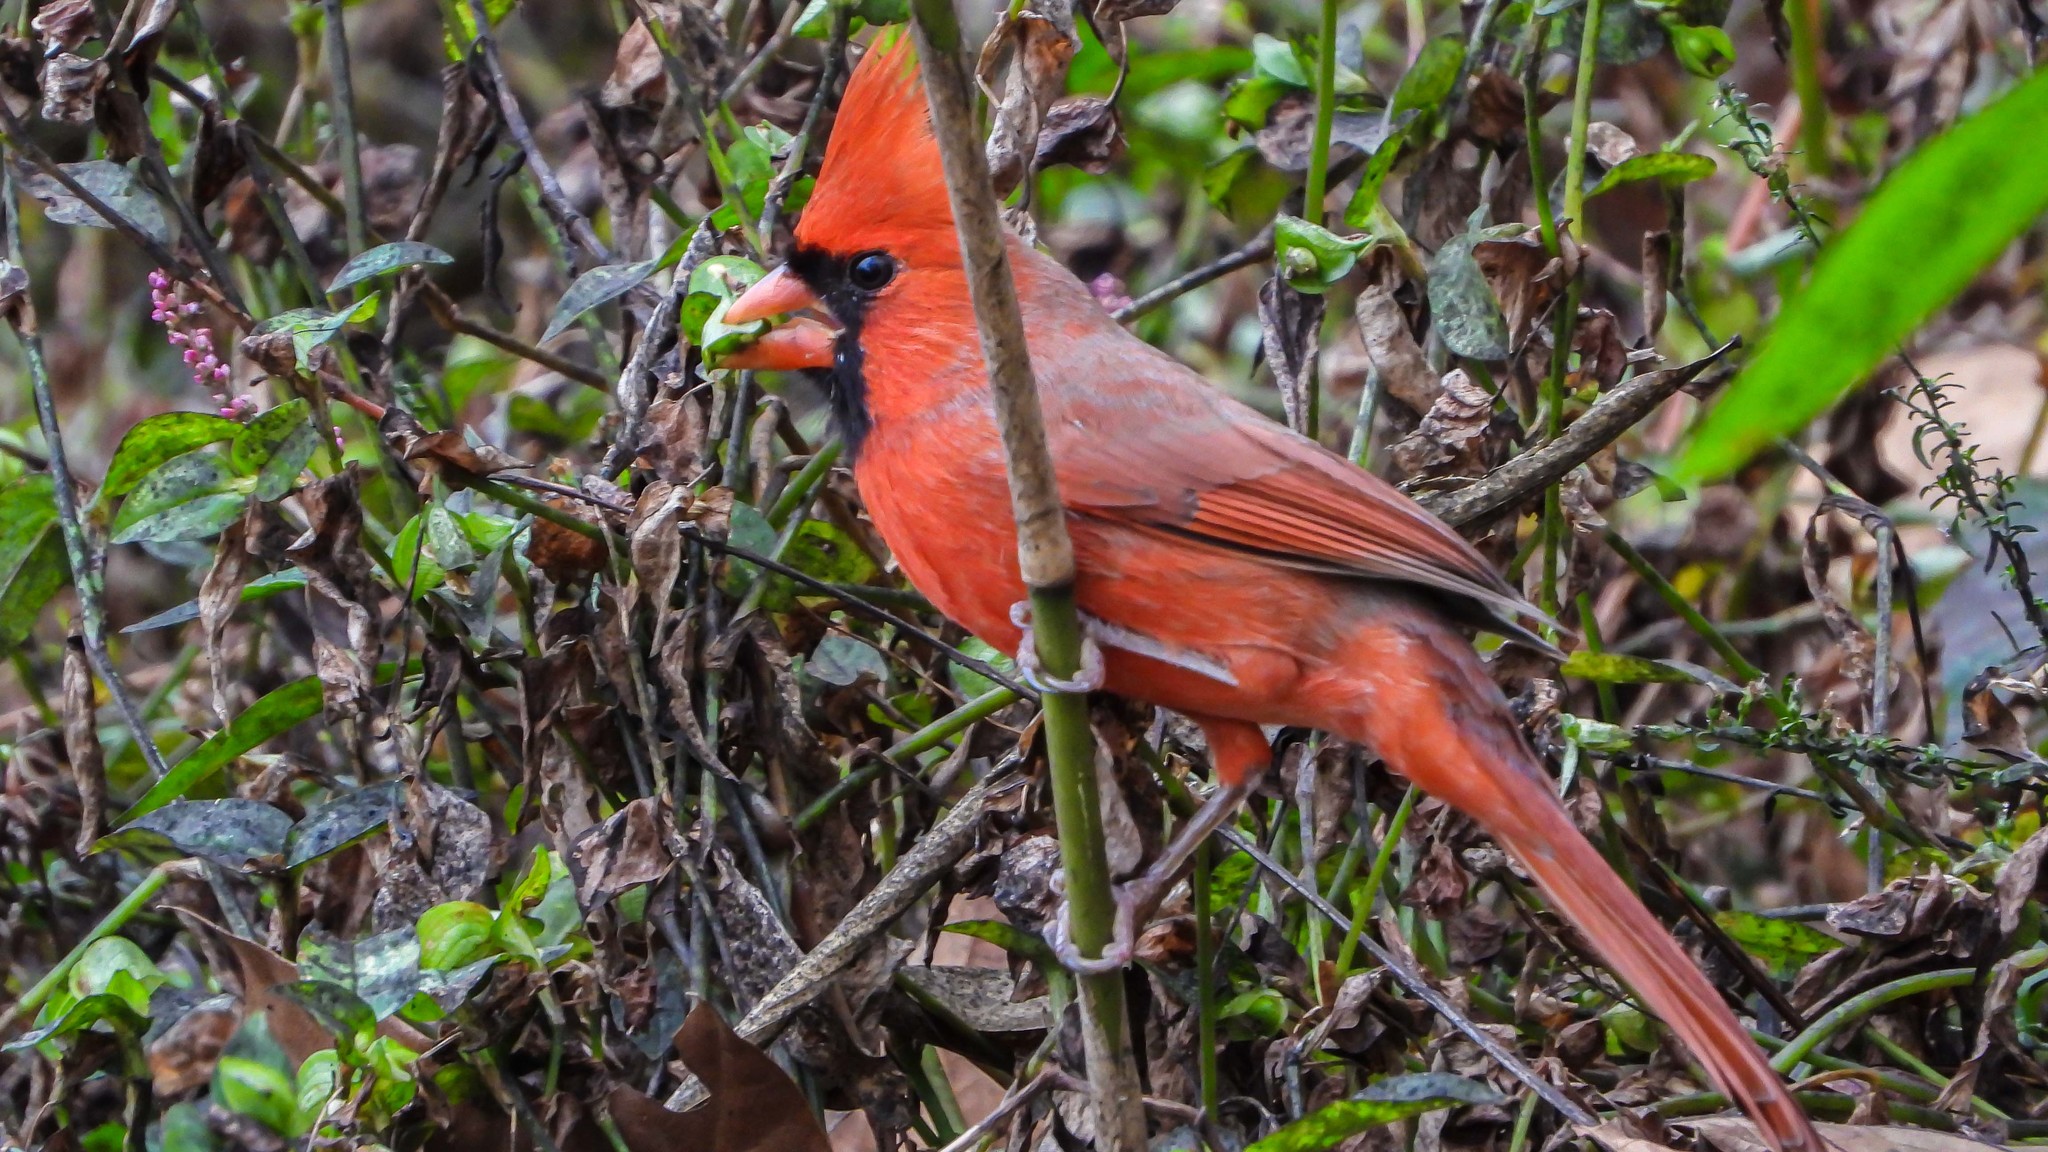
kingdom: Animalia
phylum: Chordata
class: Aves
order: Passeriformes
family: Cardinalidae
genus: Cardinalis
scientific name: Cardinalis cardinalis
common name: Northern cardinal
